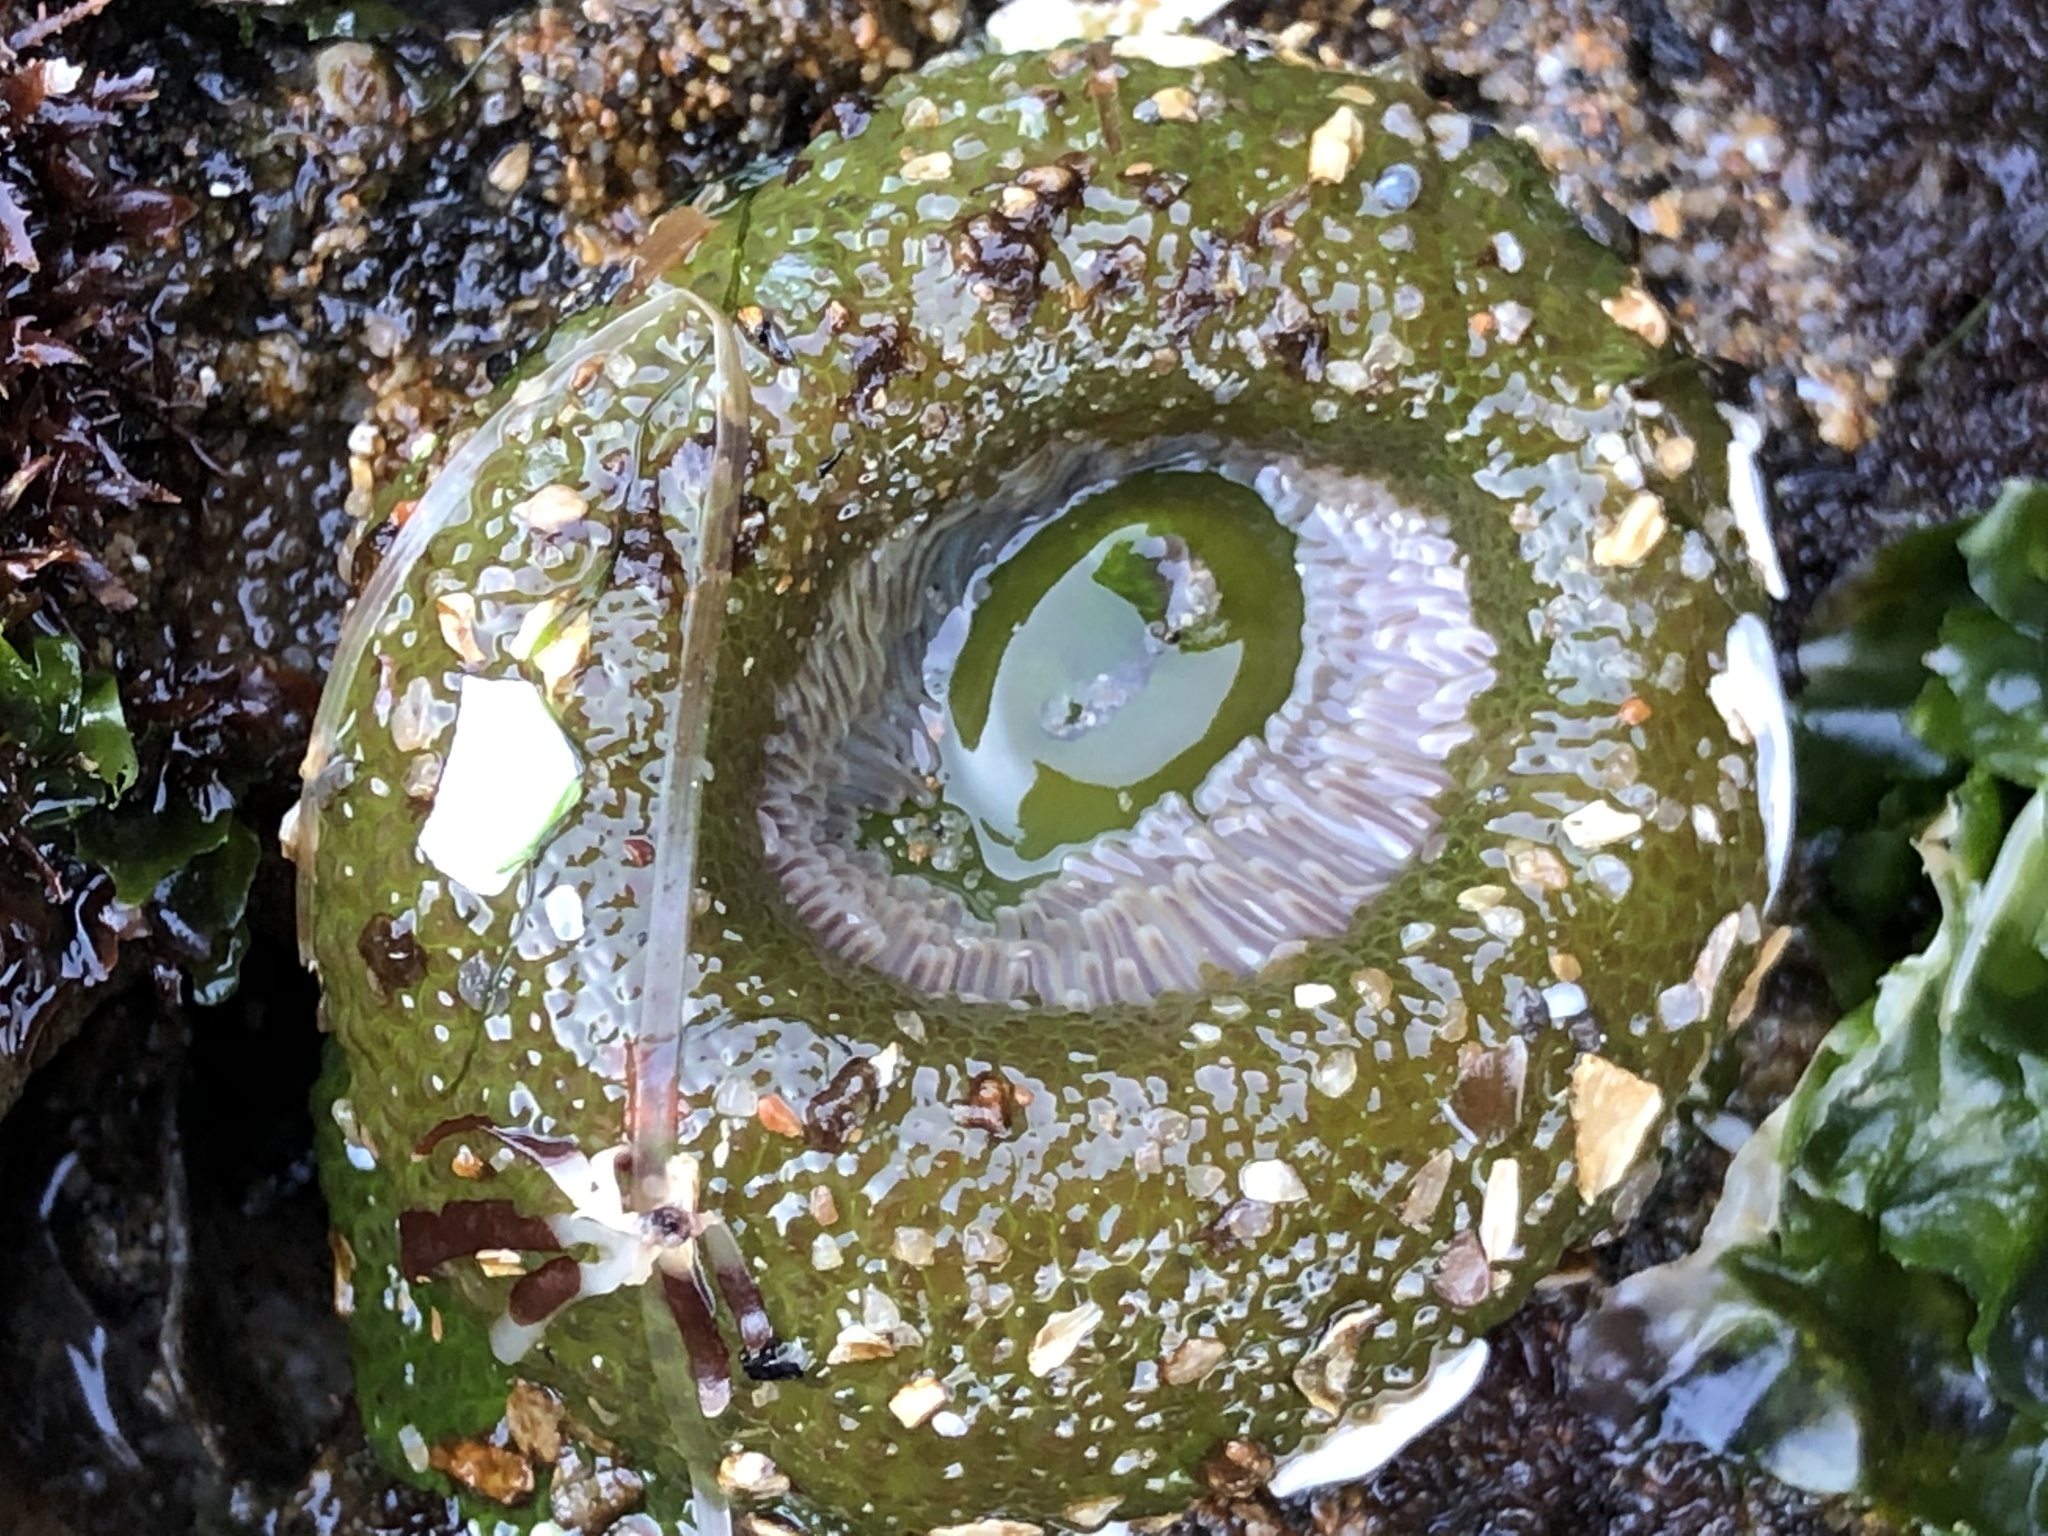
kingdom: Animalia
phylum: Cnidaria
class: Anthozoa
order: Actiniaria
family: Actiniidae
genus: Anthopleura
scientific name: Anthopleura xanthogrammica
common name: Giant green anemone
